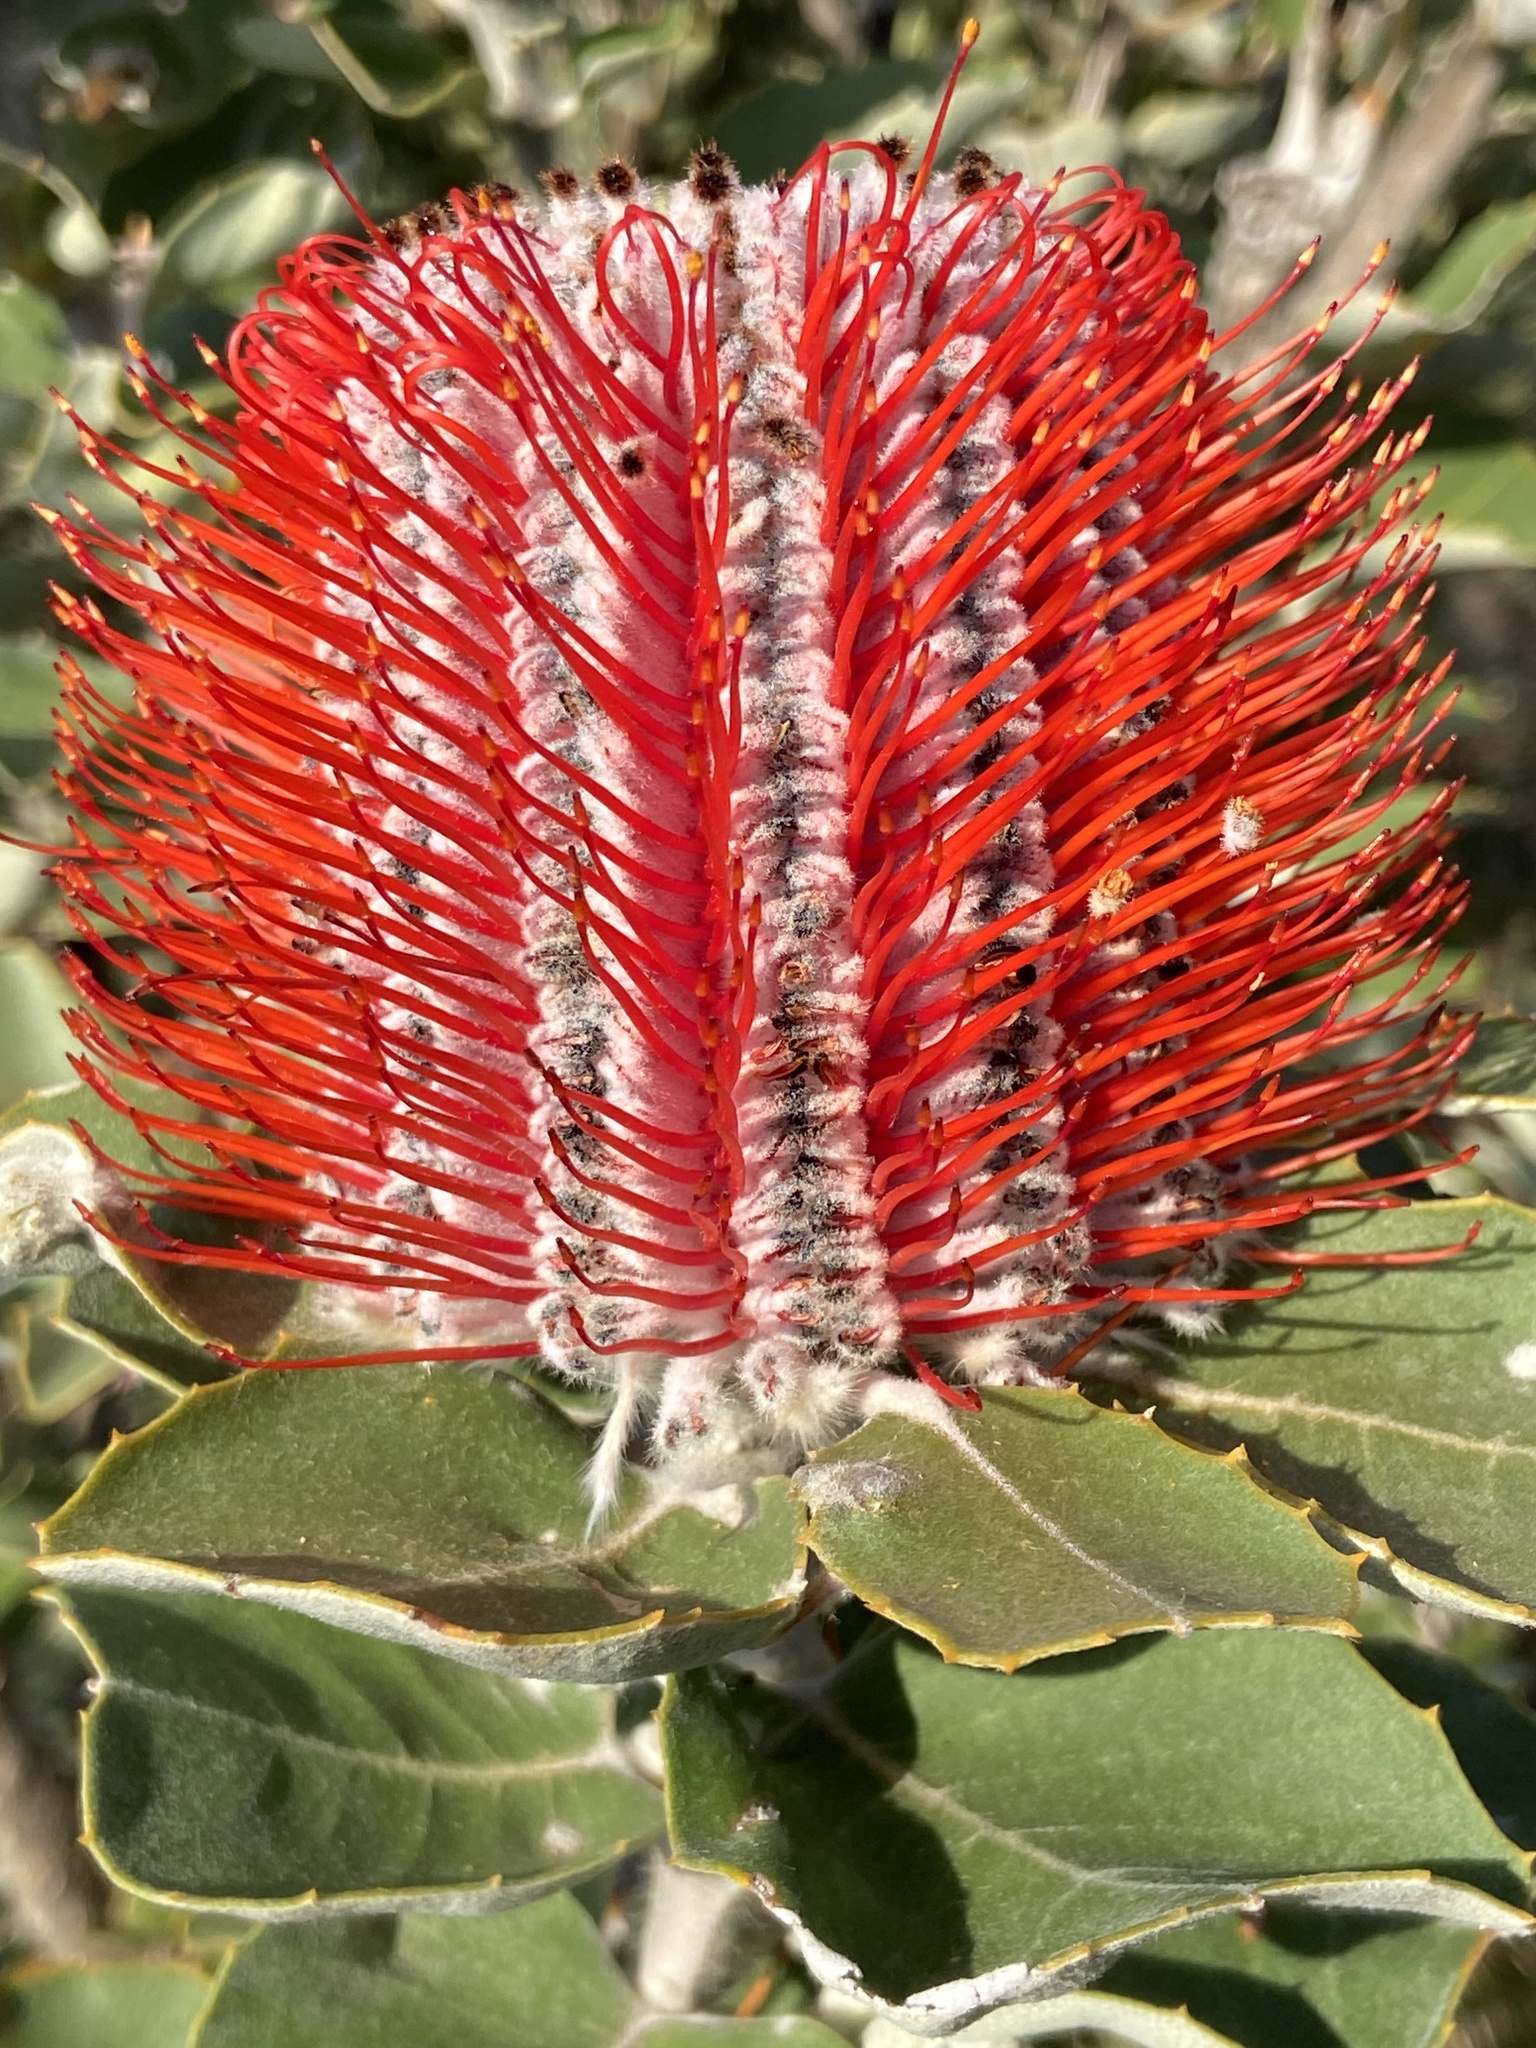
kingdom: Plantae
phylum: Tracheophyta
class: Magnoliopsida
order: Proteales
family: Proteaceae
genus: Banksia
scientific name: Banksia coccinea
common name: Scarlet banksia
